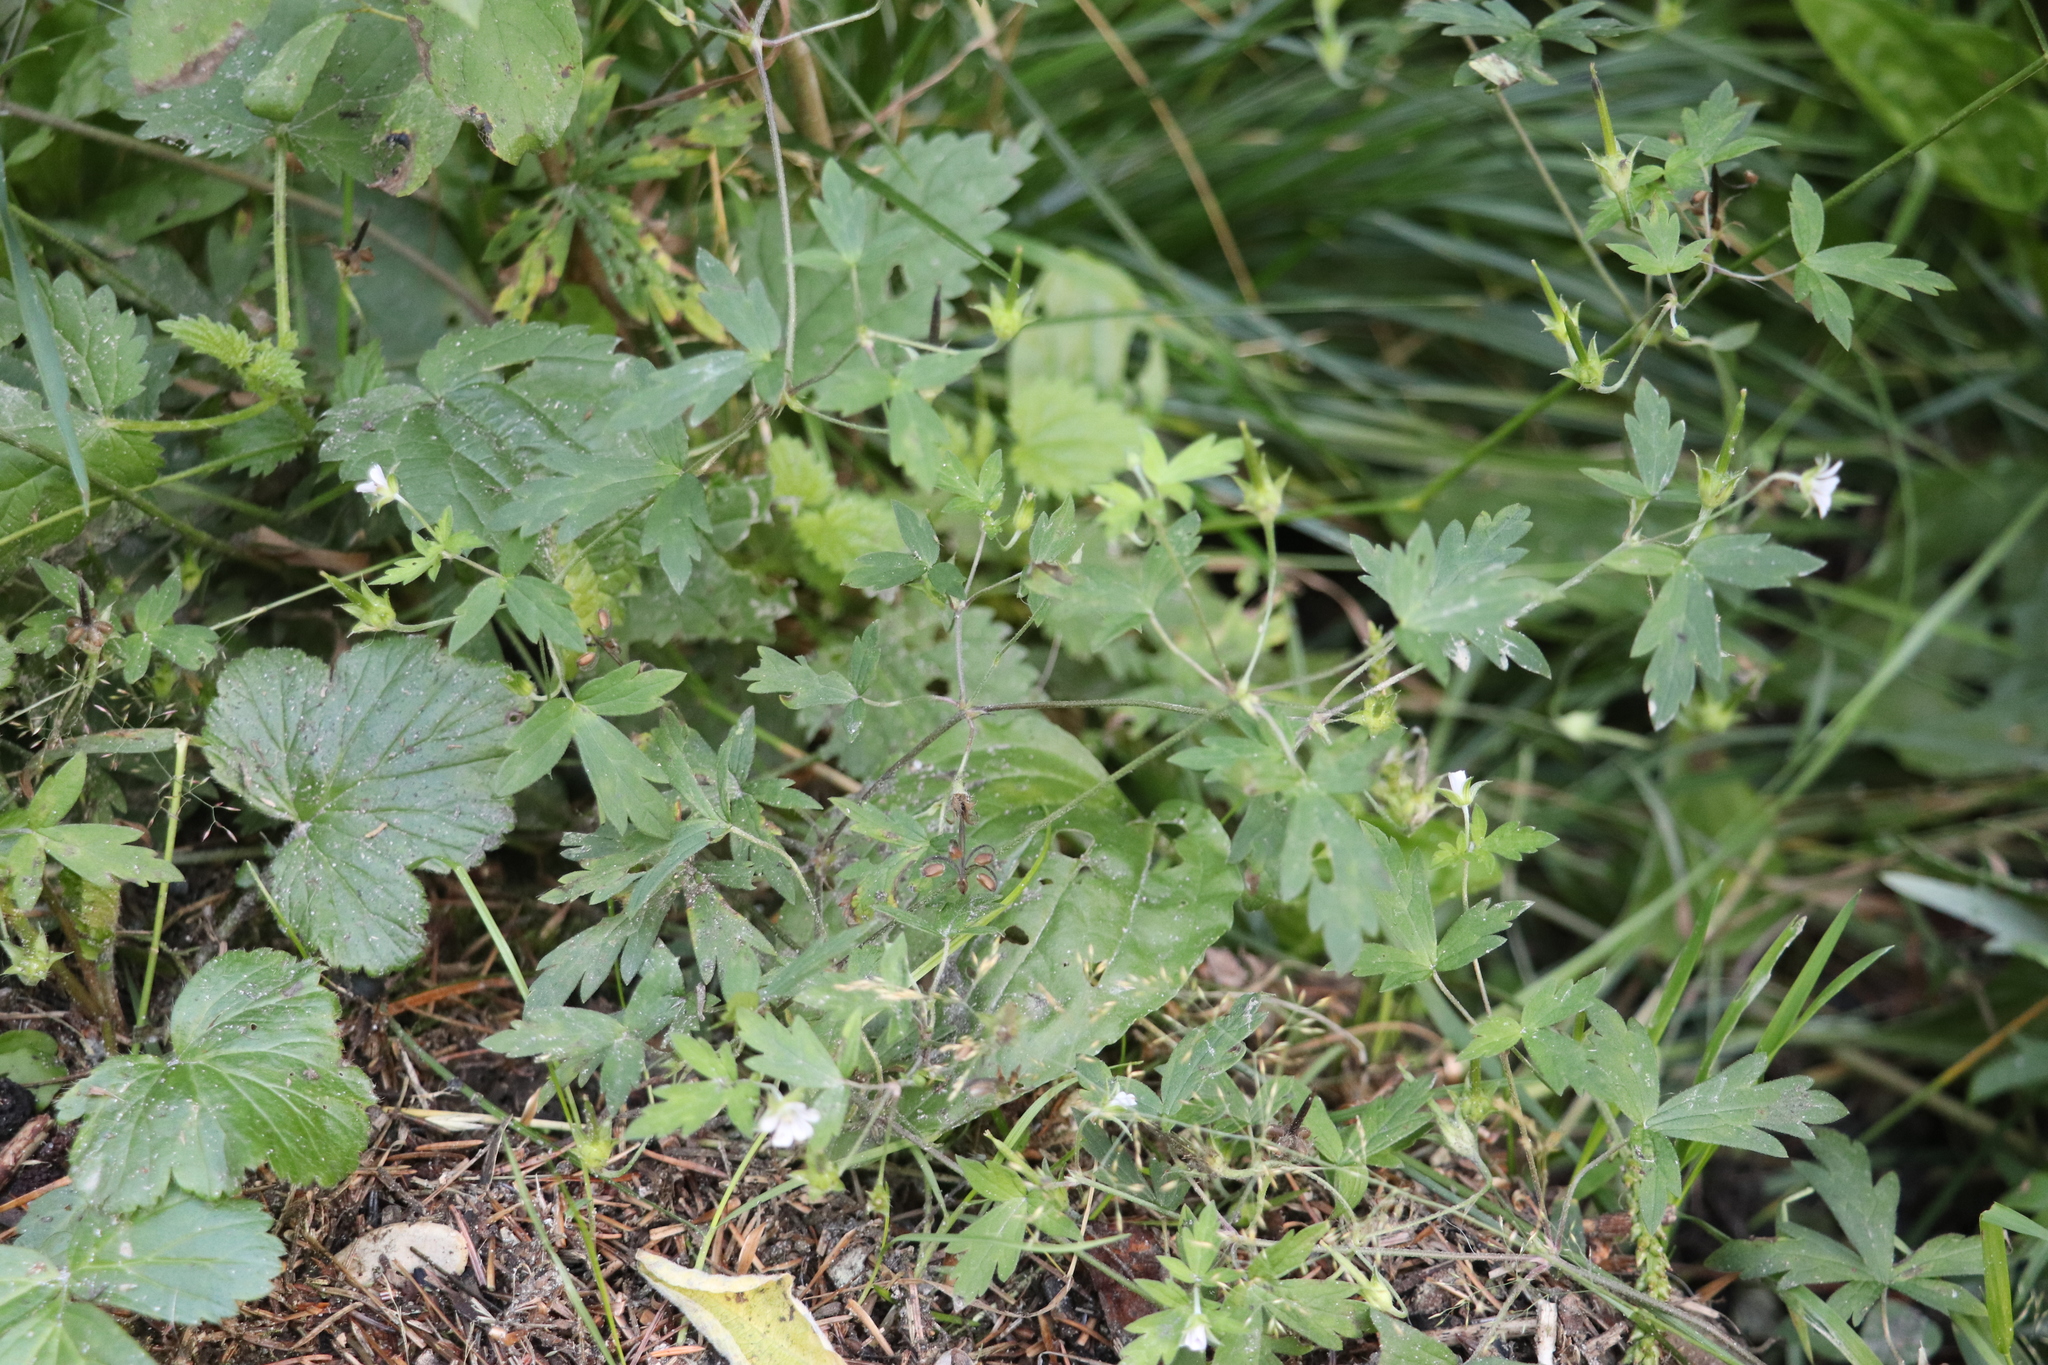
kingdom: Plantae
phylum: Tracheophyta
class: Magnoliopsida
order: Geraniales
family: Geraniaceae
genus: Geranium
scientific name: Geranium sibiricum
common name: Siberian crane's-bill
